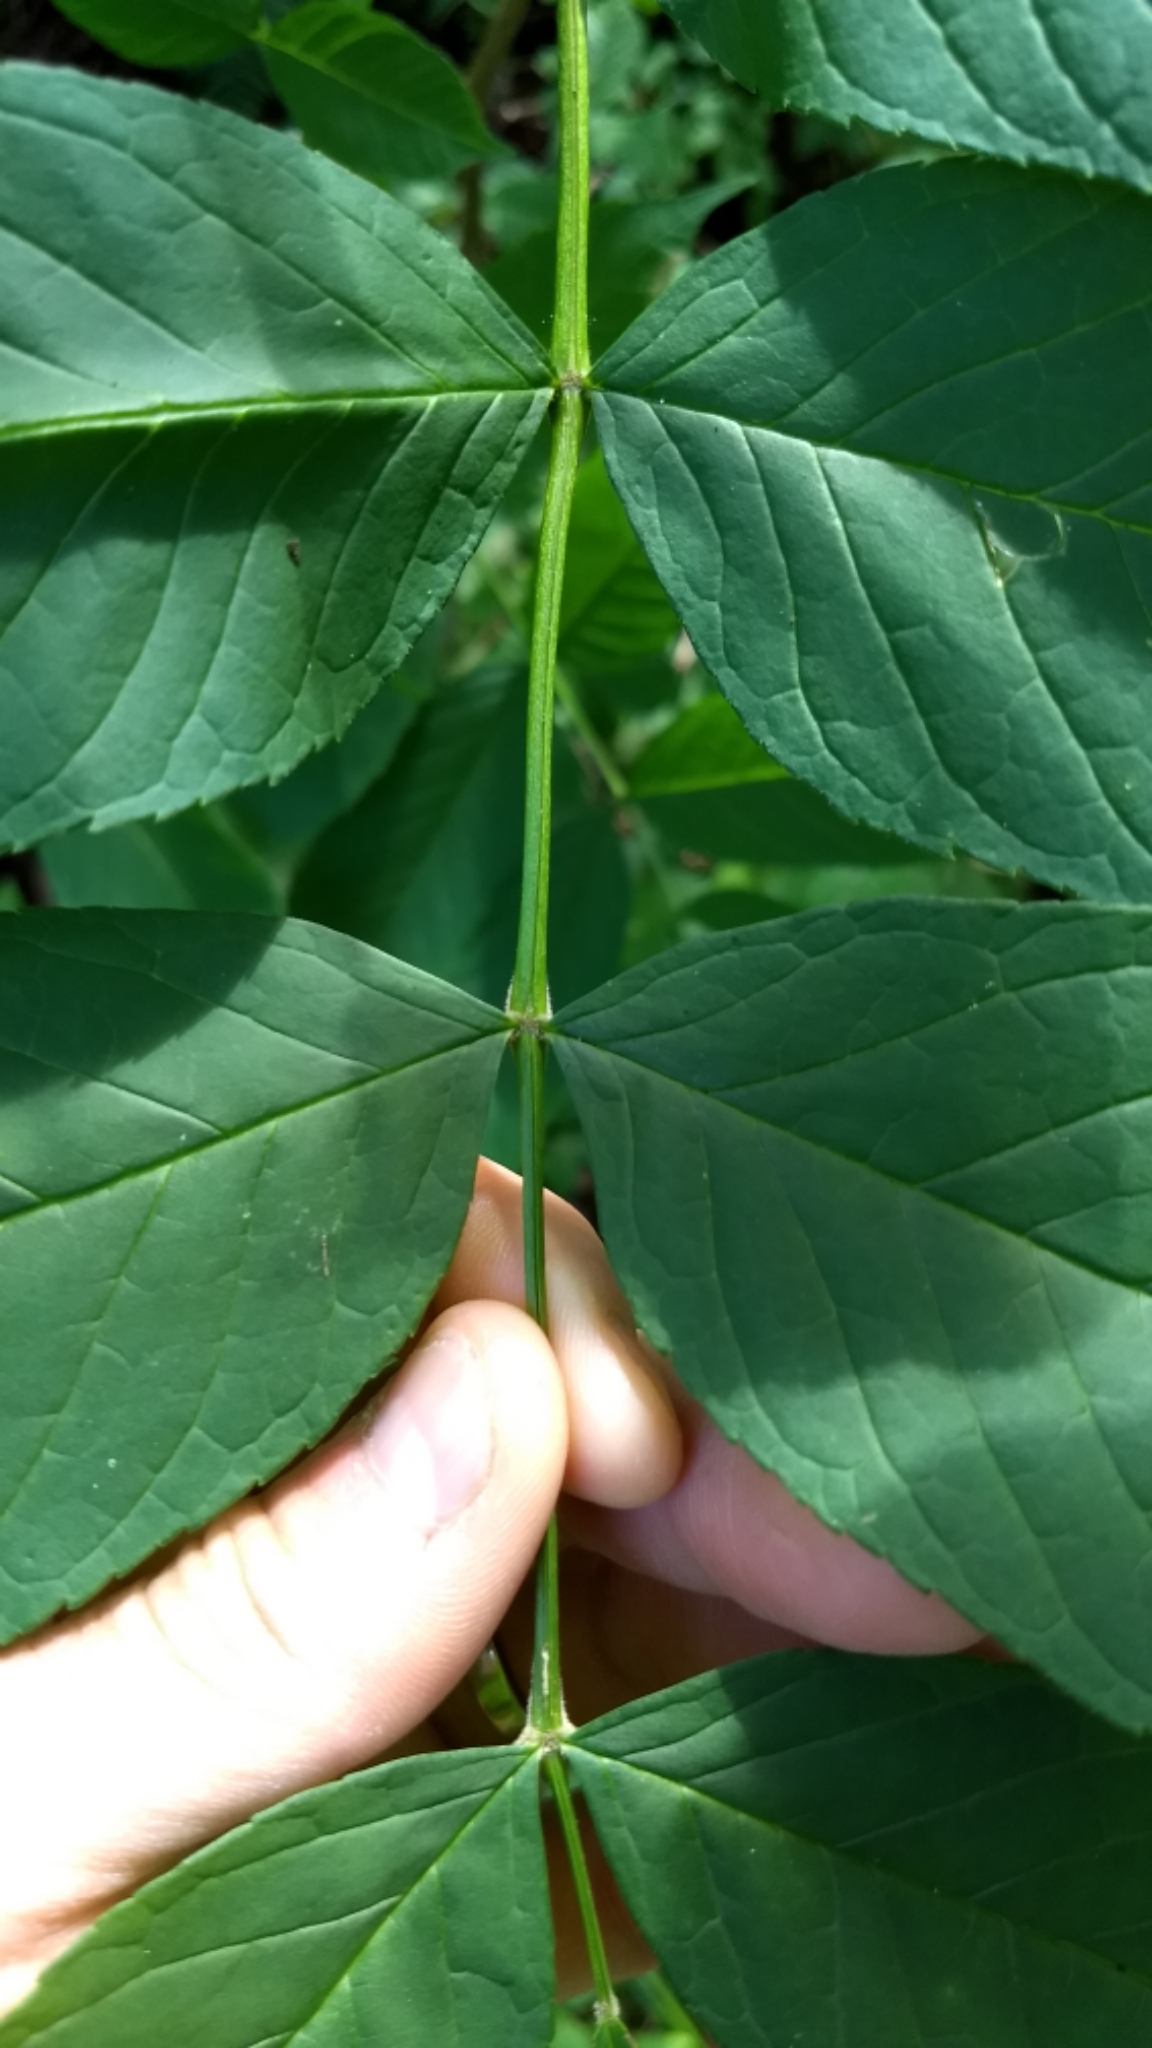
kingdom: Plantae
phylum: Tracheophyta
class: Magnoliopsida
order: Lamiales
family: Oleaceae
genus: Fraxinus
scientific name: Fraxinus nigra
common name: Black ash
